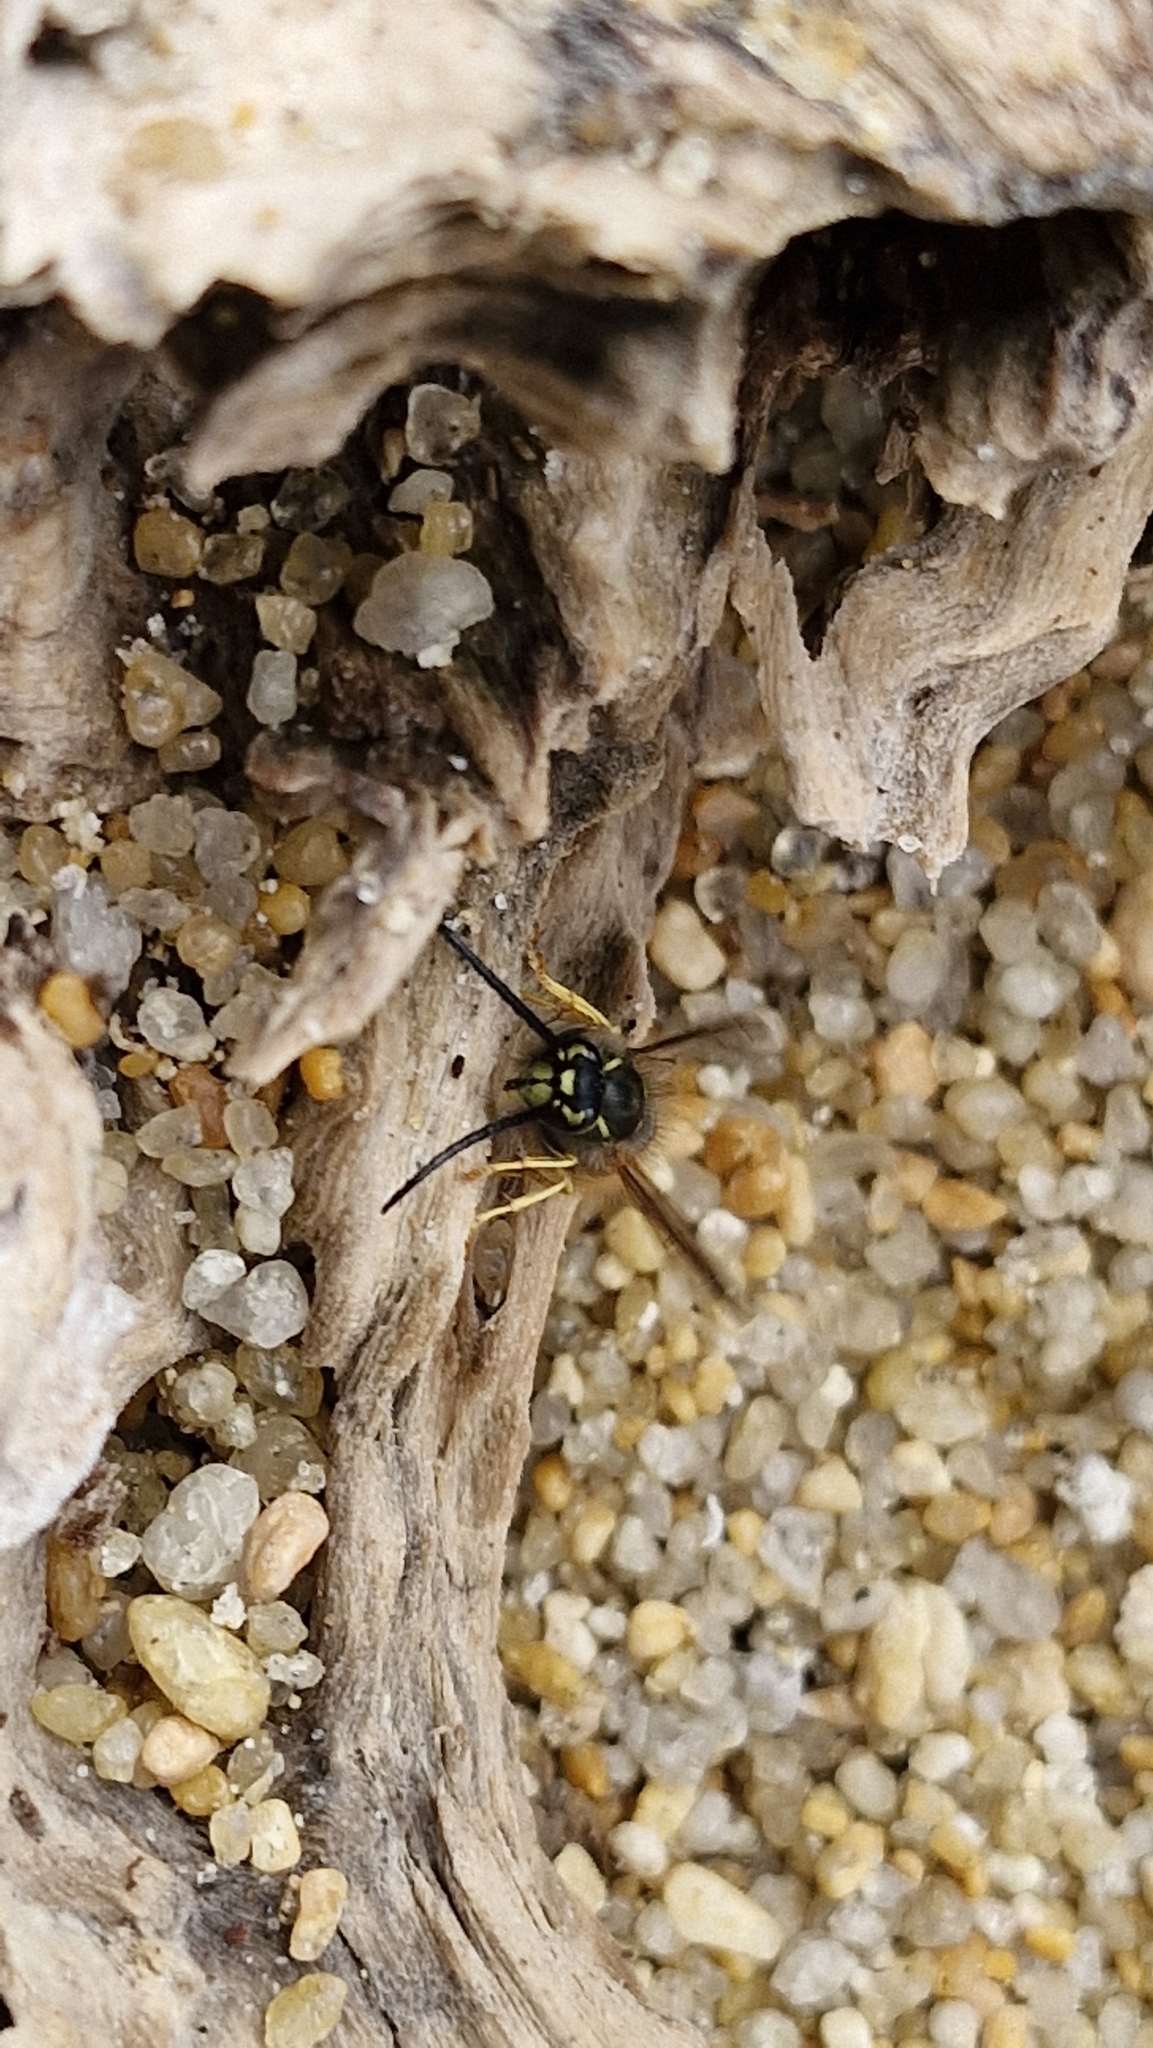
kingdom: Animalia
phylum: Arthropoda
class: Insecta
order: Hymenoptera
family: Vespidae
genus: Vespula
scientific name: Vespula vulgaris
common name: Common wasp
